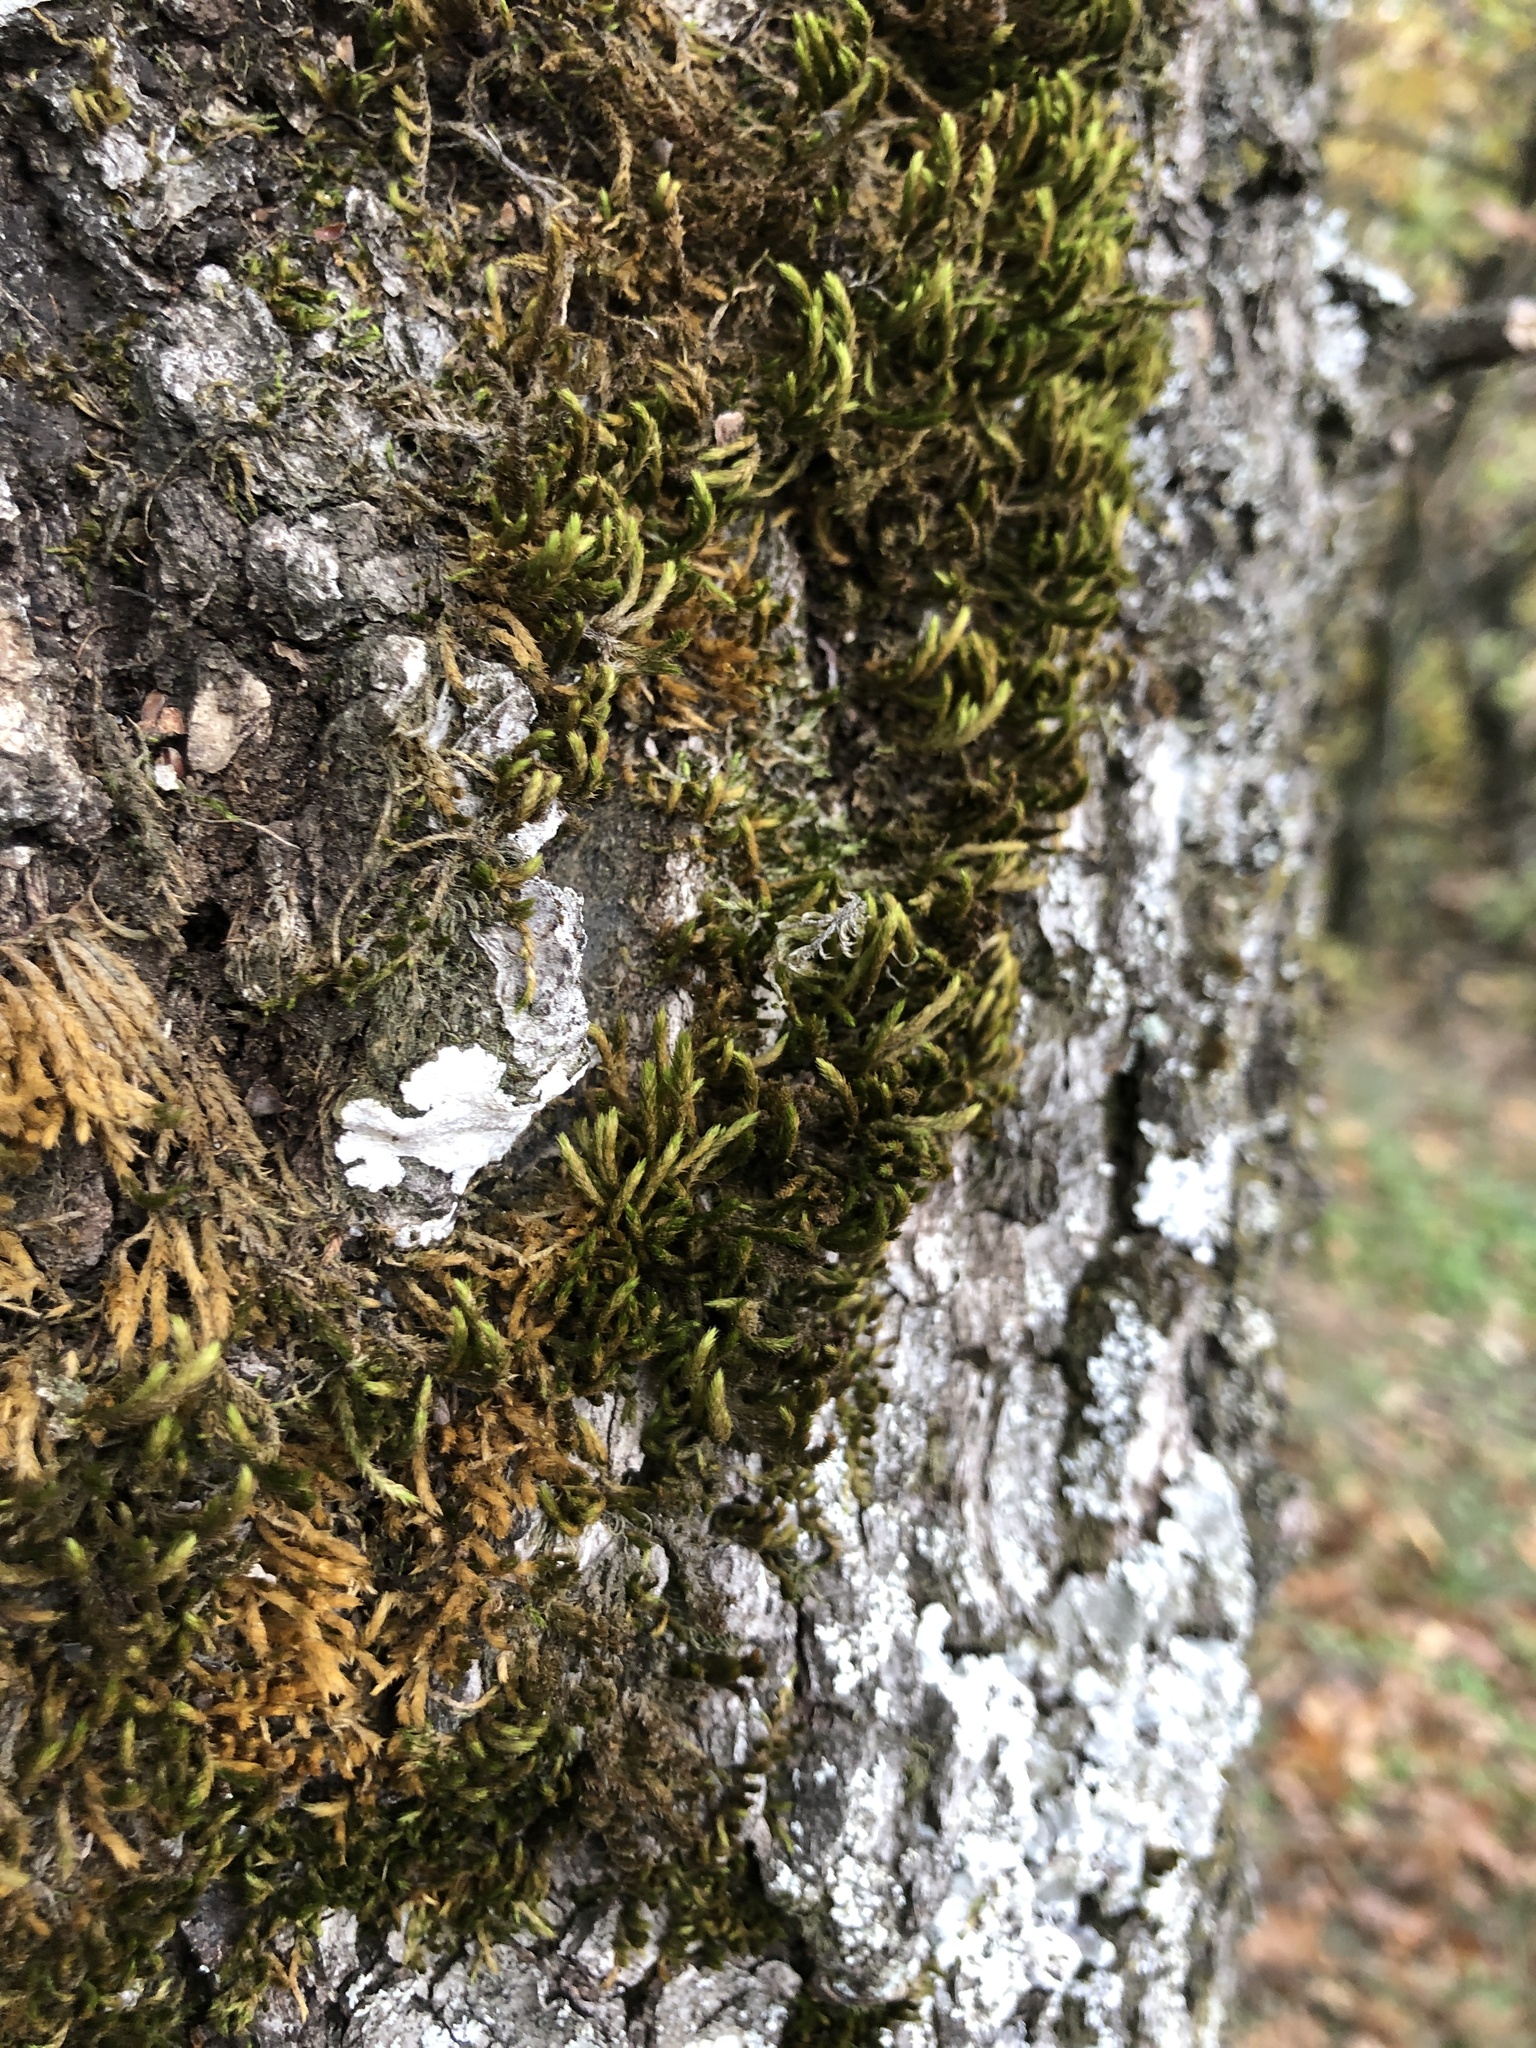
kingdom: Plantae
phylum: Bryophyta
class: Bryopsida
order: Hypnales
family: Leucodontaceae
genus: Leucodon
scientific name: Leucodon sciuroides
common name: Squirrel-tail moss
